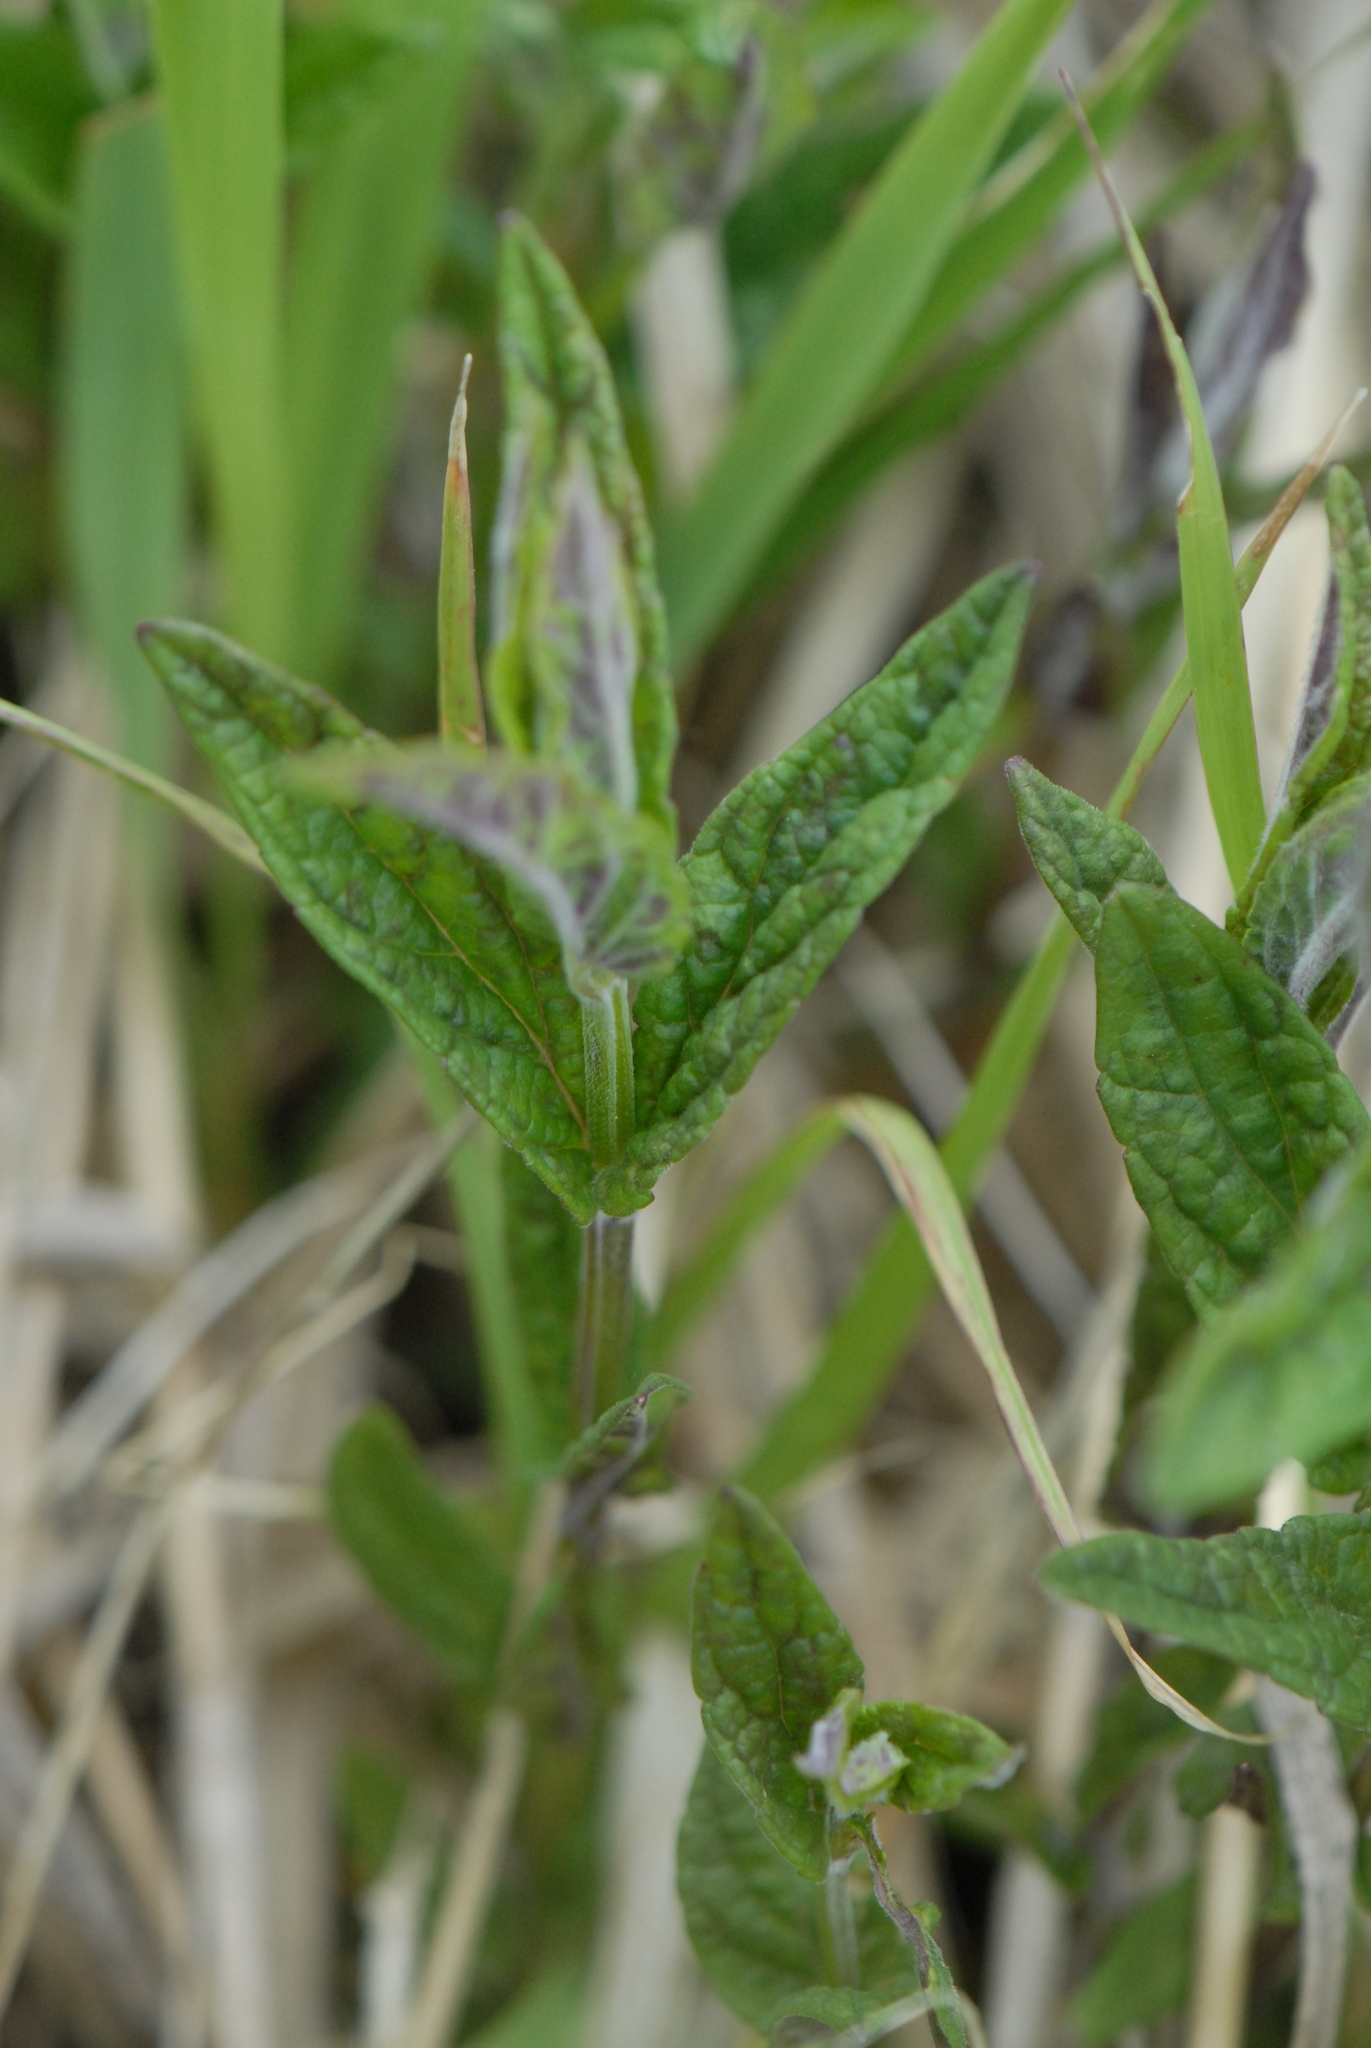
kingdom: Plantae
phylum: Tracheophyta
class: Magnoliopsida
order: Lamiales
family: Lamiaceae
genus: Scutellaria
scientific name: Scutellaria galericulata
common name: Skullcap
